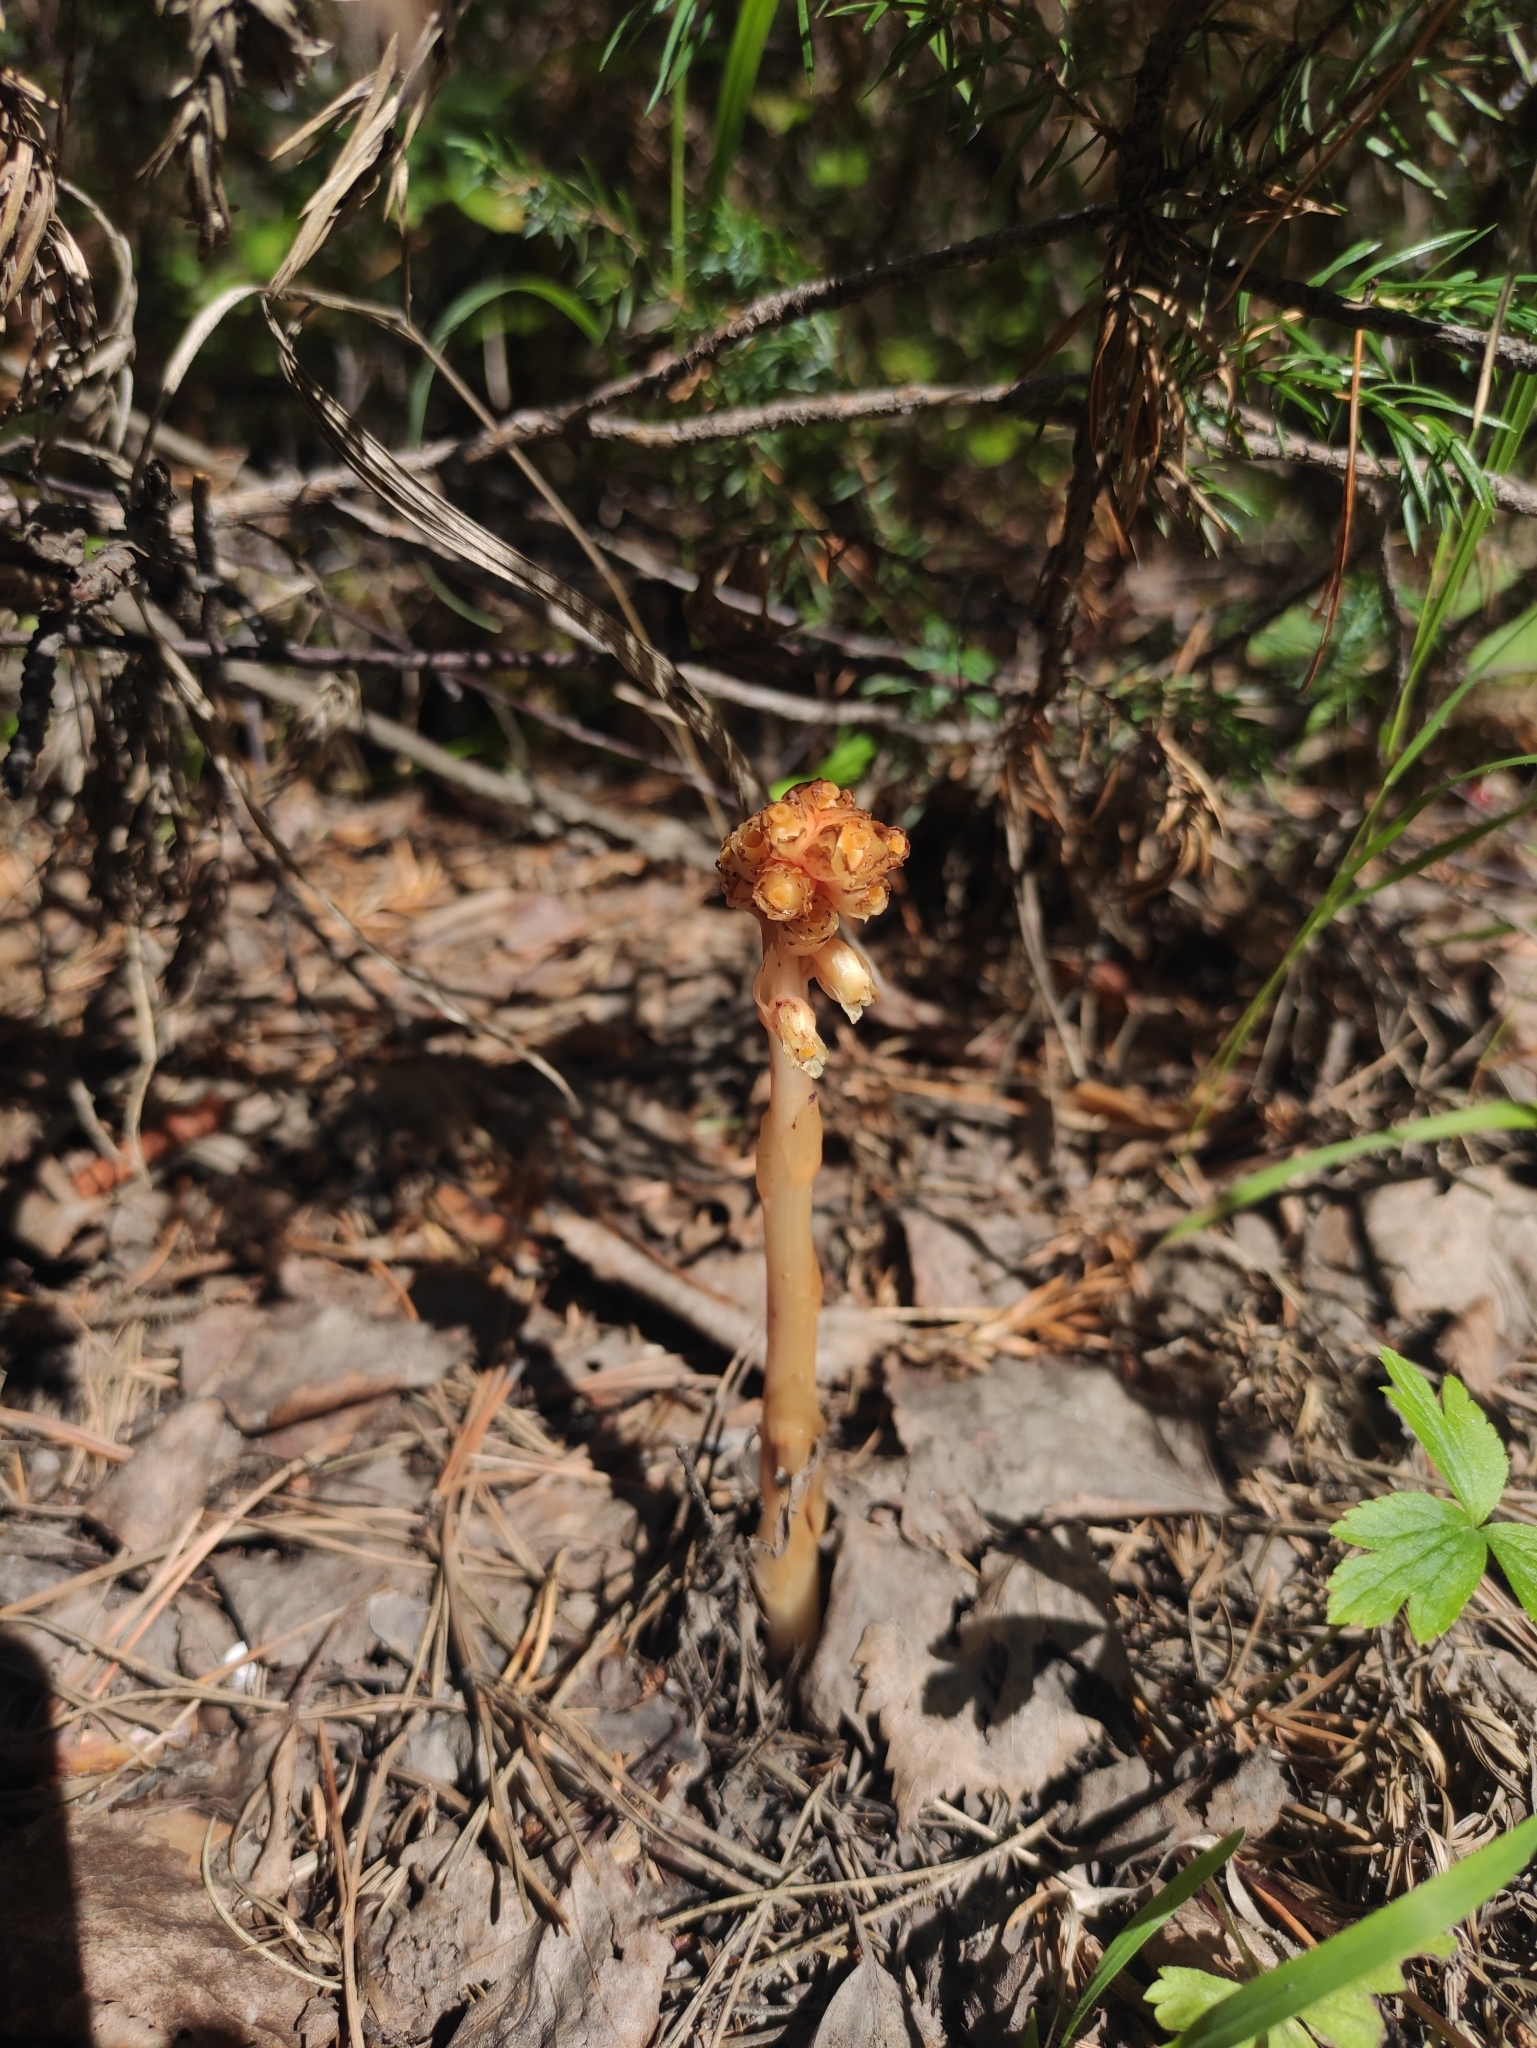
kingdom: Plantae
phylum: Tracheophyta
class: Magnoliopsida
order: Ericales
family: Ericaceae
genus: Hypopitys
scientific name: Hypopitys monotropa
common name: Yellow bird's-nest
